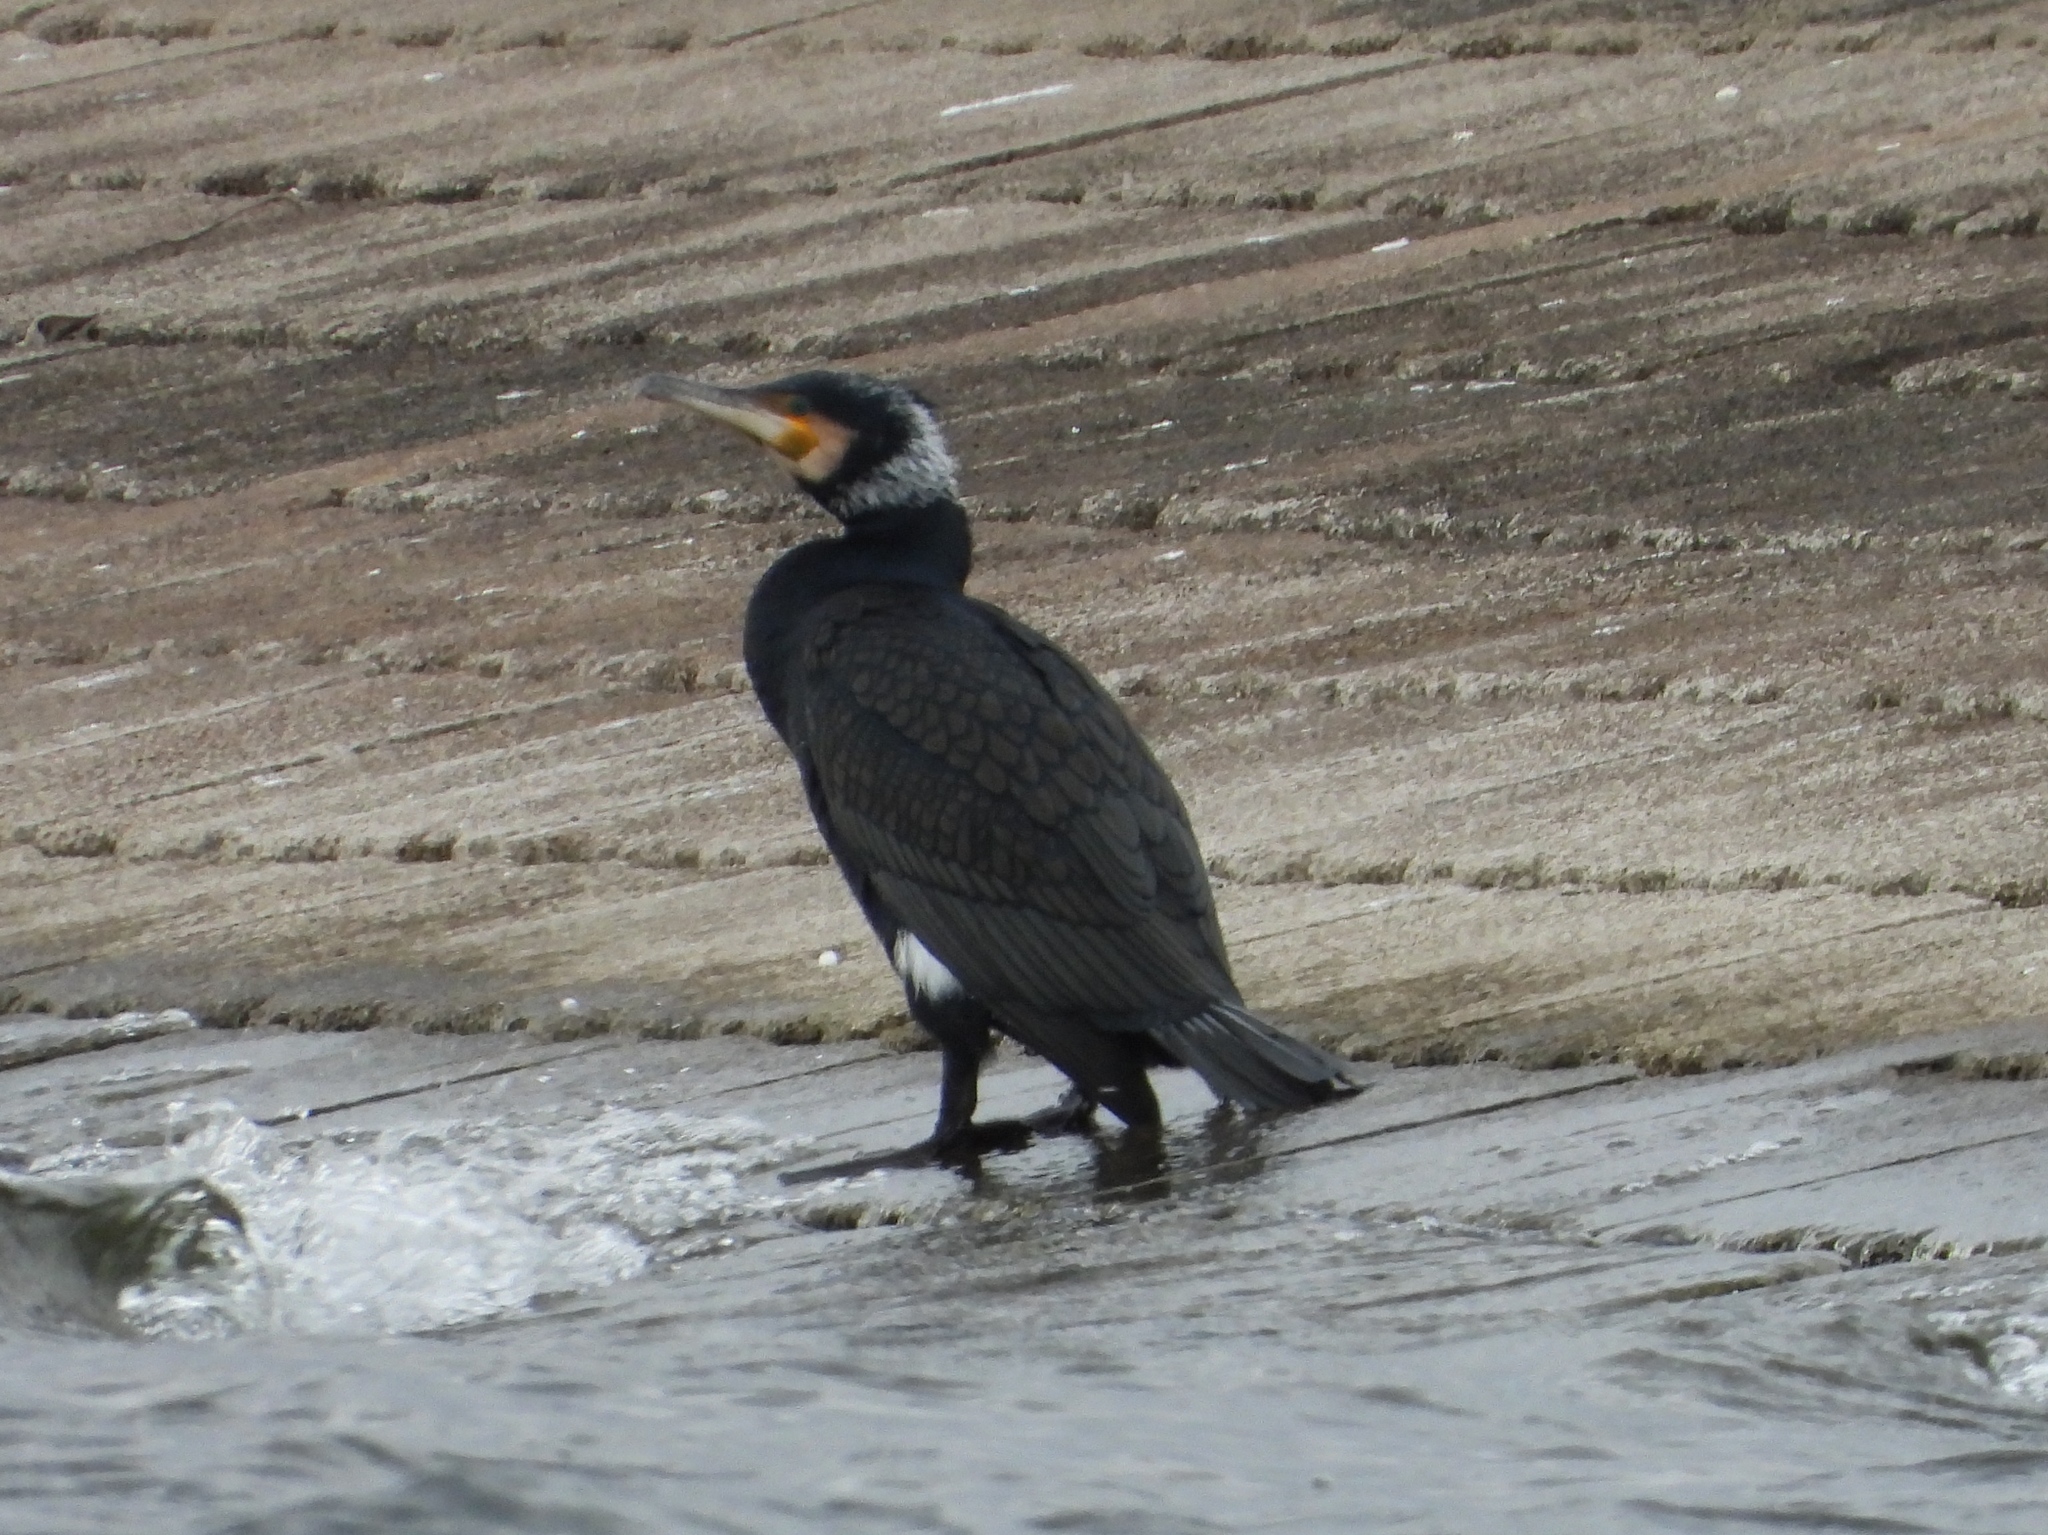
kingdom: Animalia
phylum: Chordata
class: Aves
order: Suliformes
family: Phalacrocoracidae
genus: Phalacrocorax
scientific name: Phalacrocorax carbo
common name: Great cormorant
